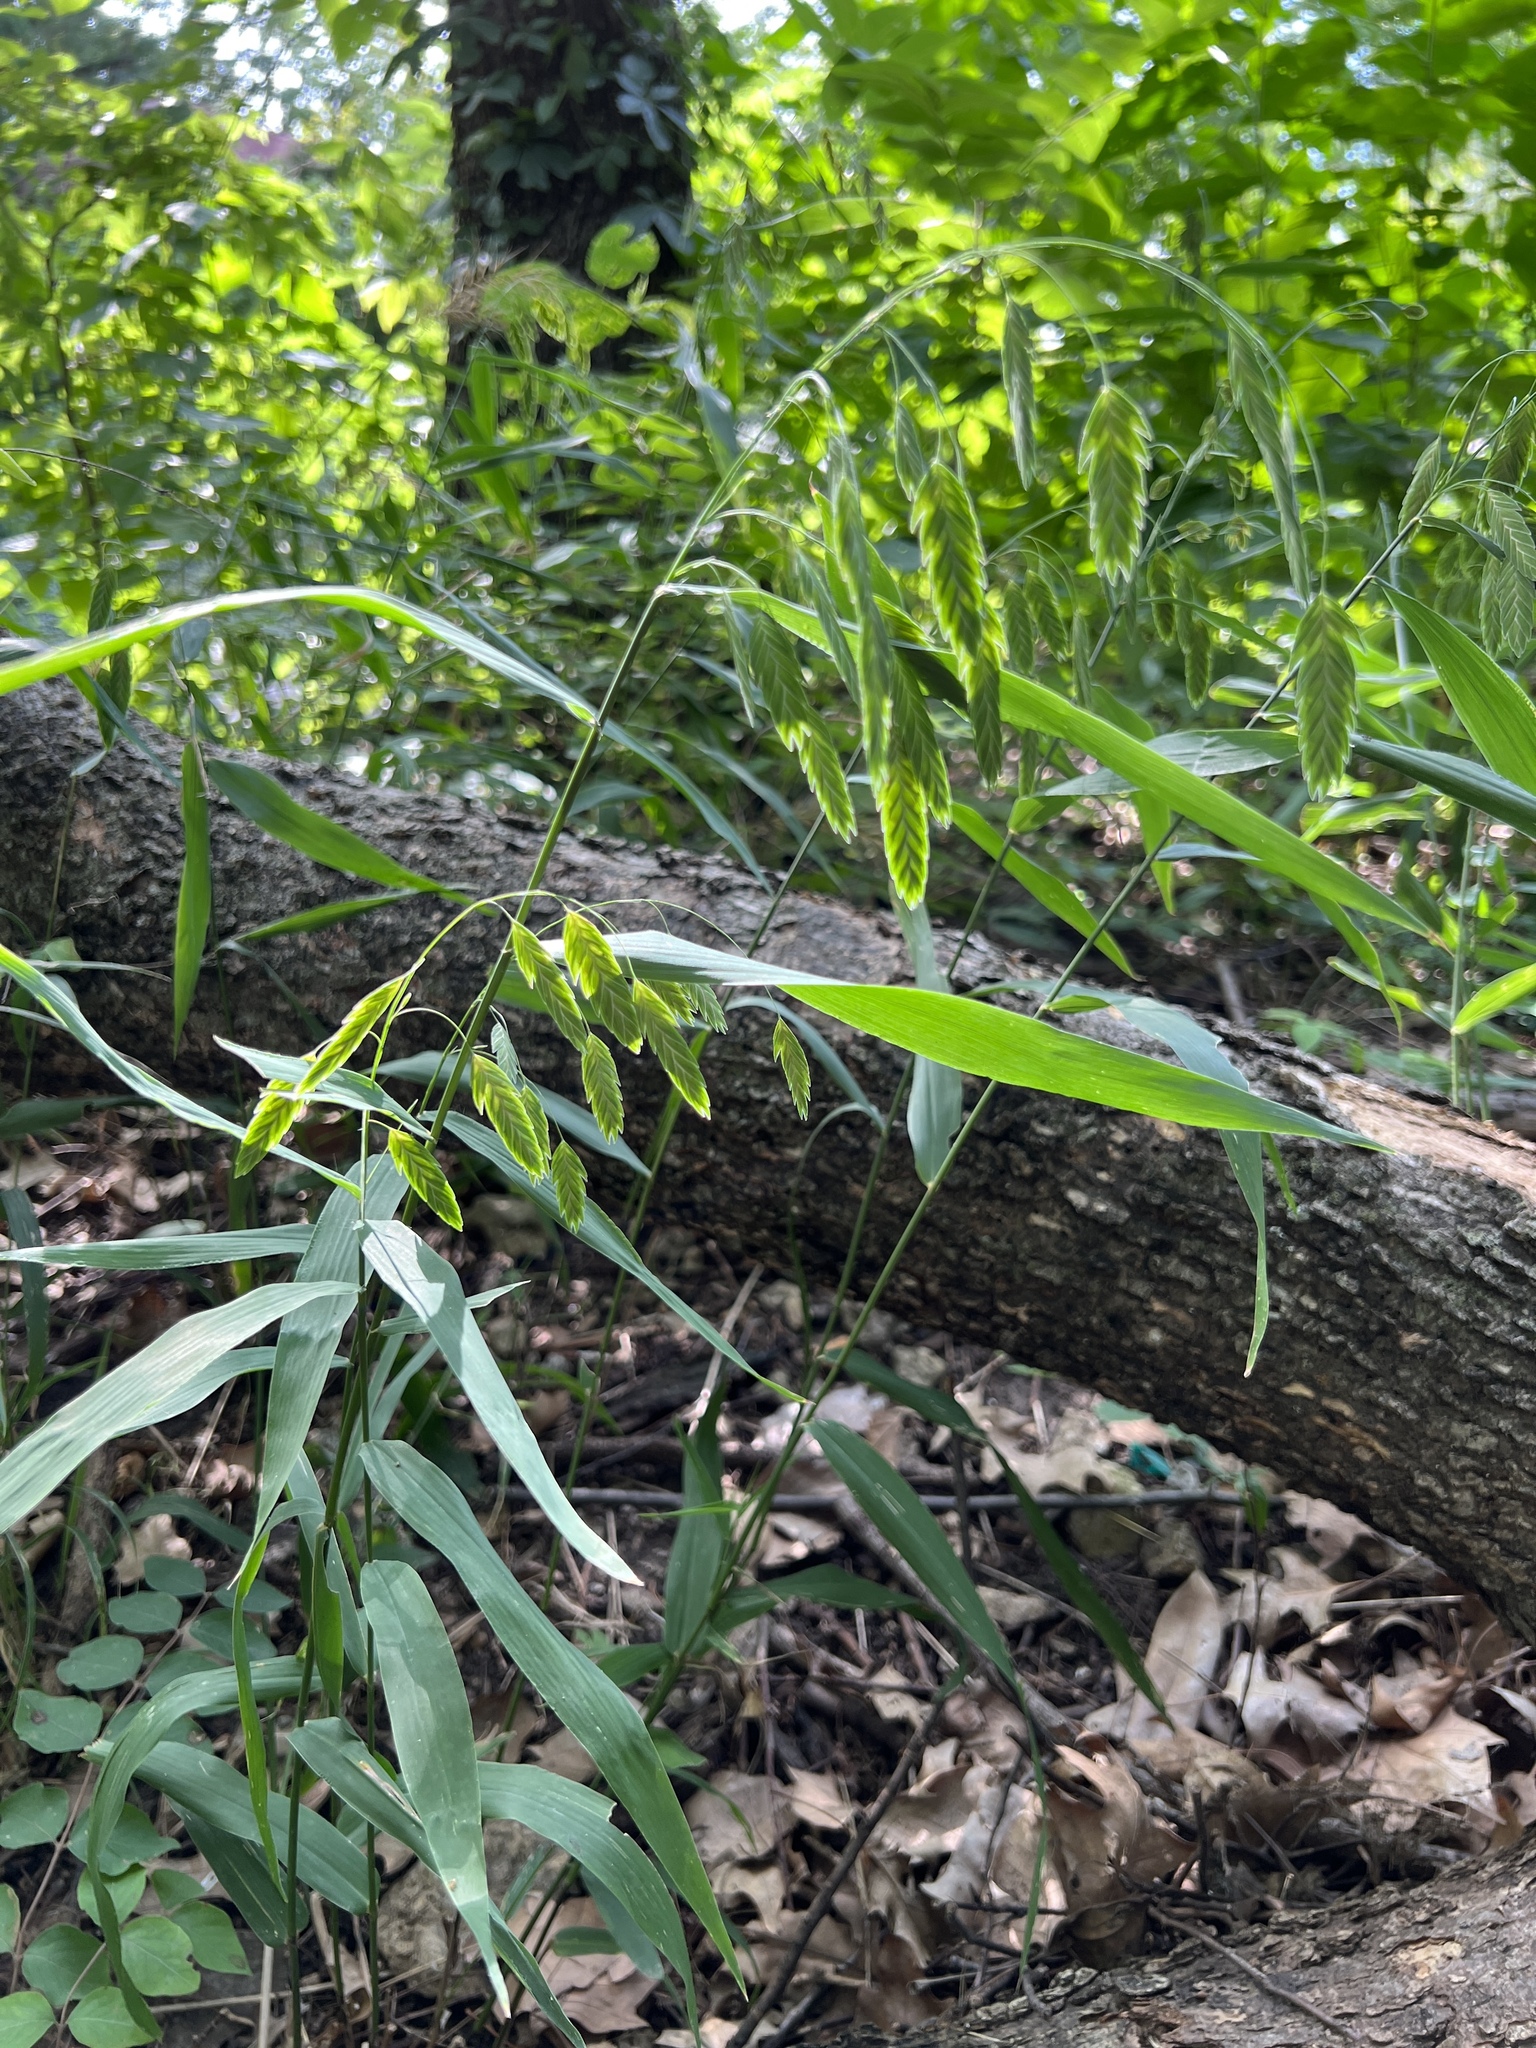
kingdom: Plantae
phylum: Tracheophyta
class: Liliopsida
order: Poales
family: Poaceae
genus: Chasmanthium
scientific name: Chasmanthium latifolium
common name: Broad-leaved chasmanthium
